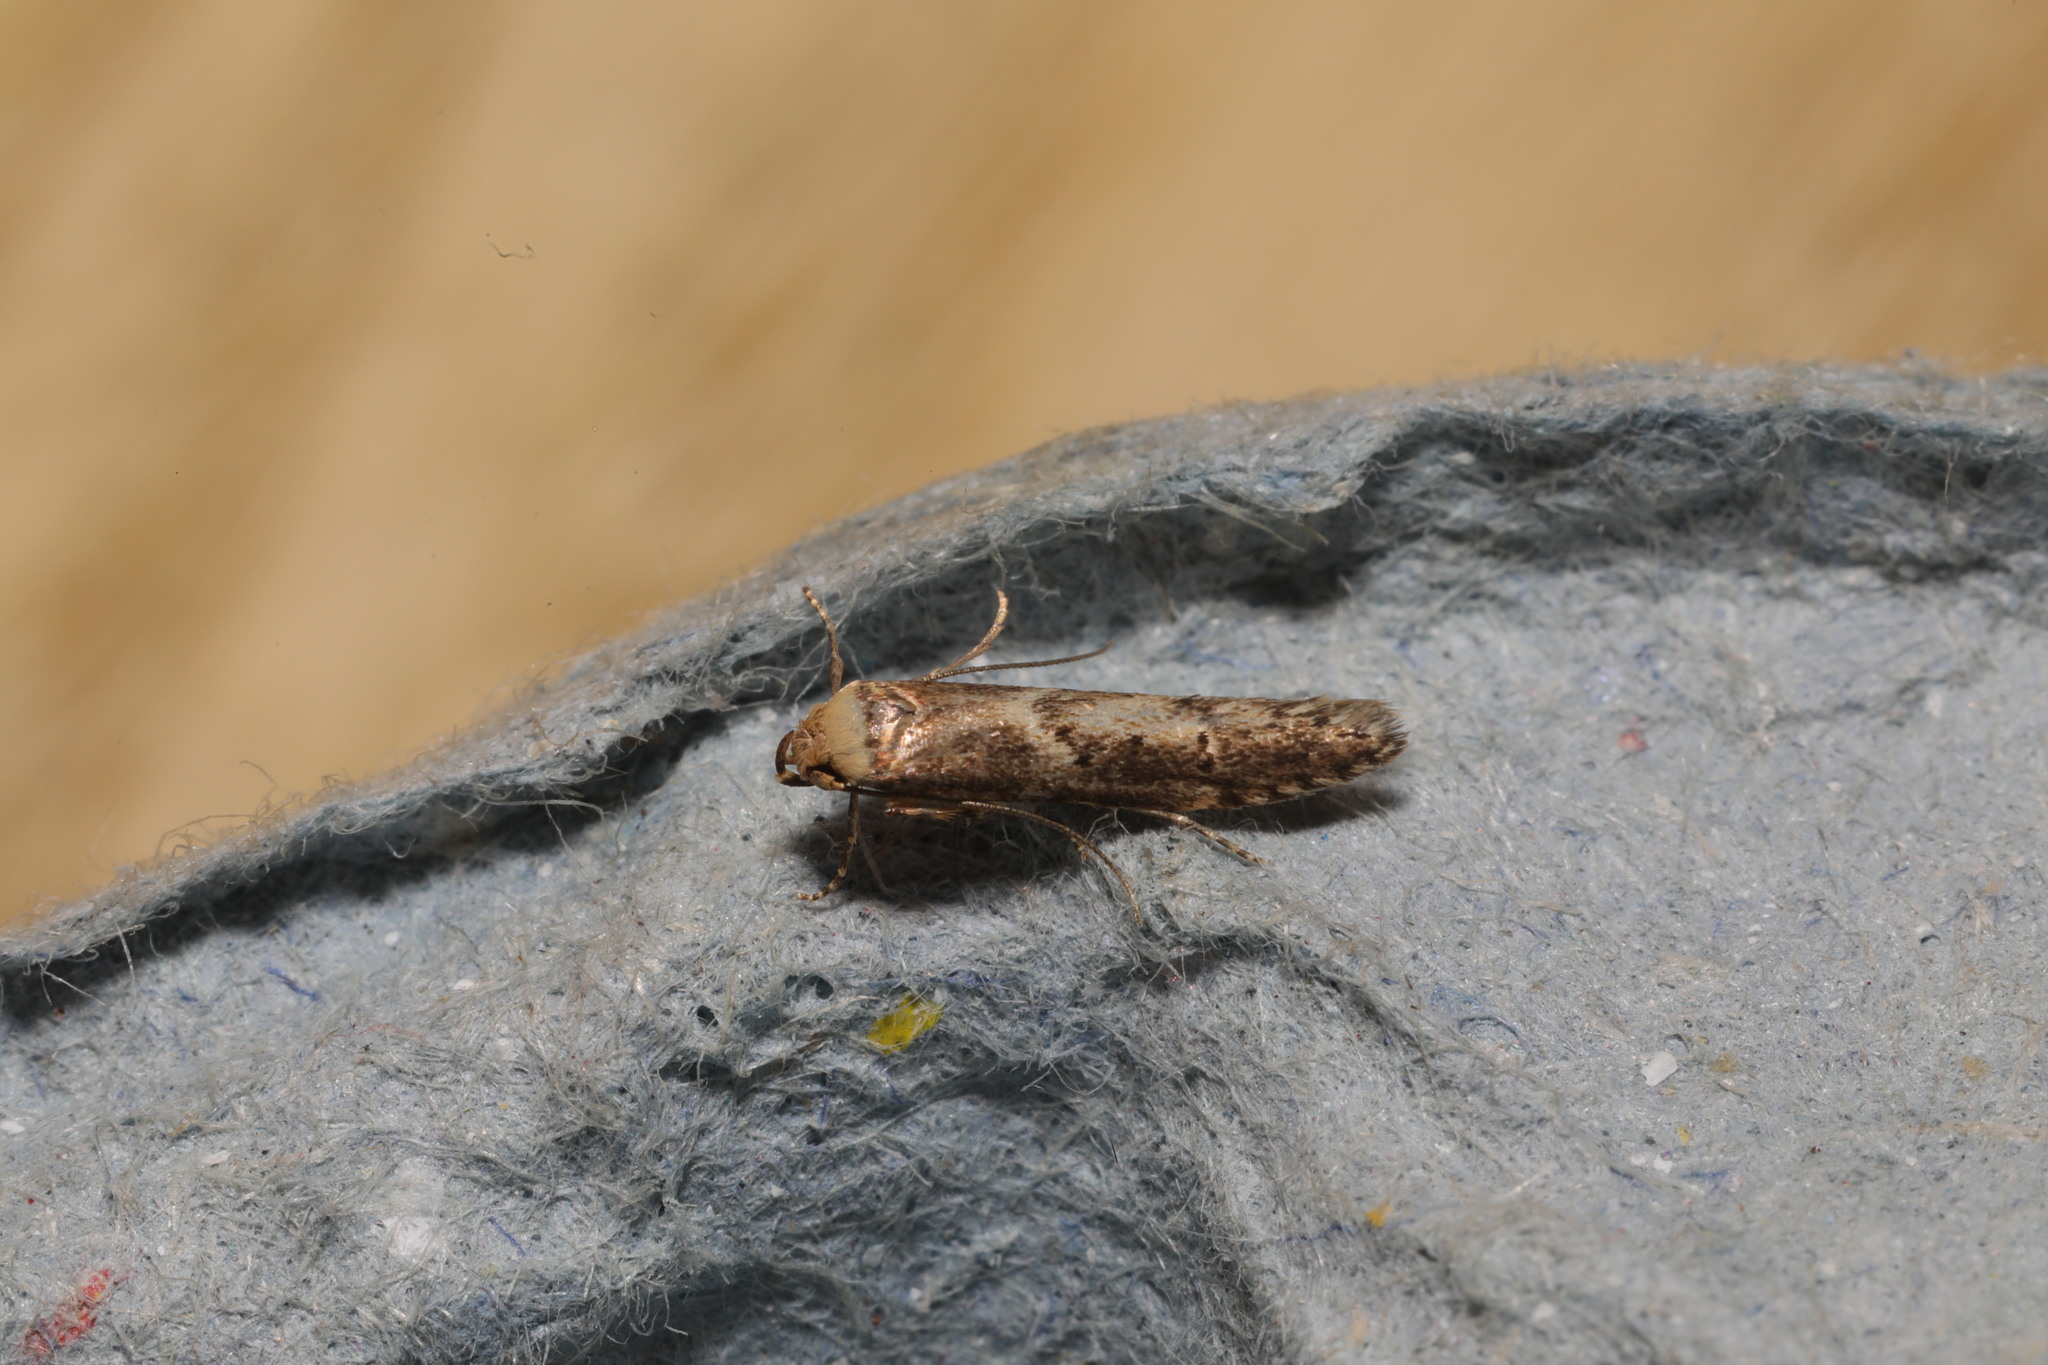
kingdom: Animalia
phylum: Arthropoda
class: Insecta
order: Lepidoptera
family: Blastobasidae
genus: Blastobasis
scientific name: Blastobasis adustella
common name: Dingy dowd
